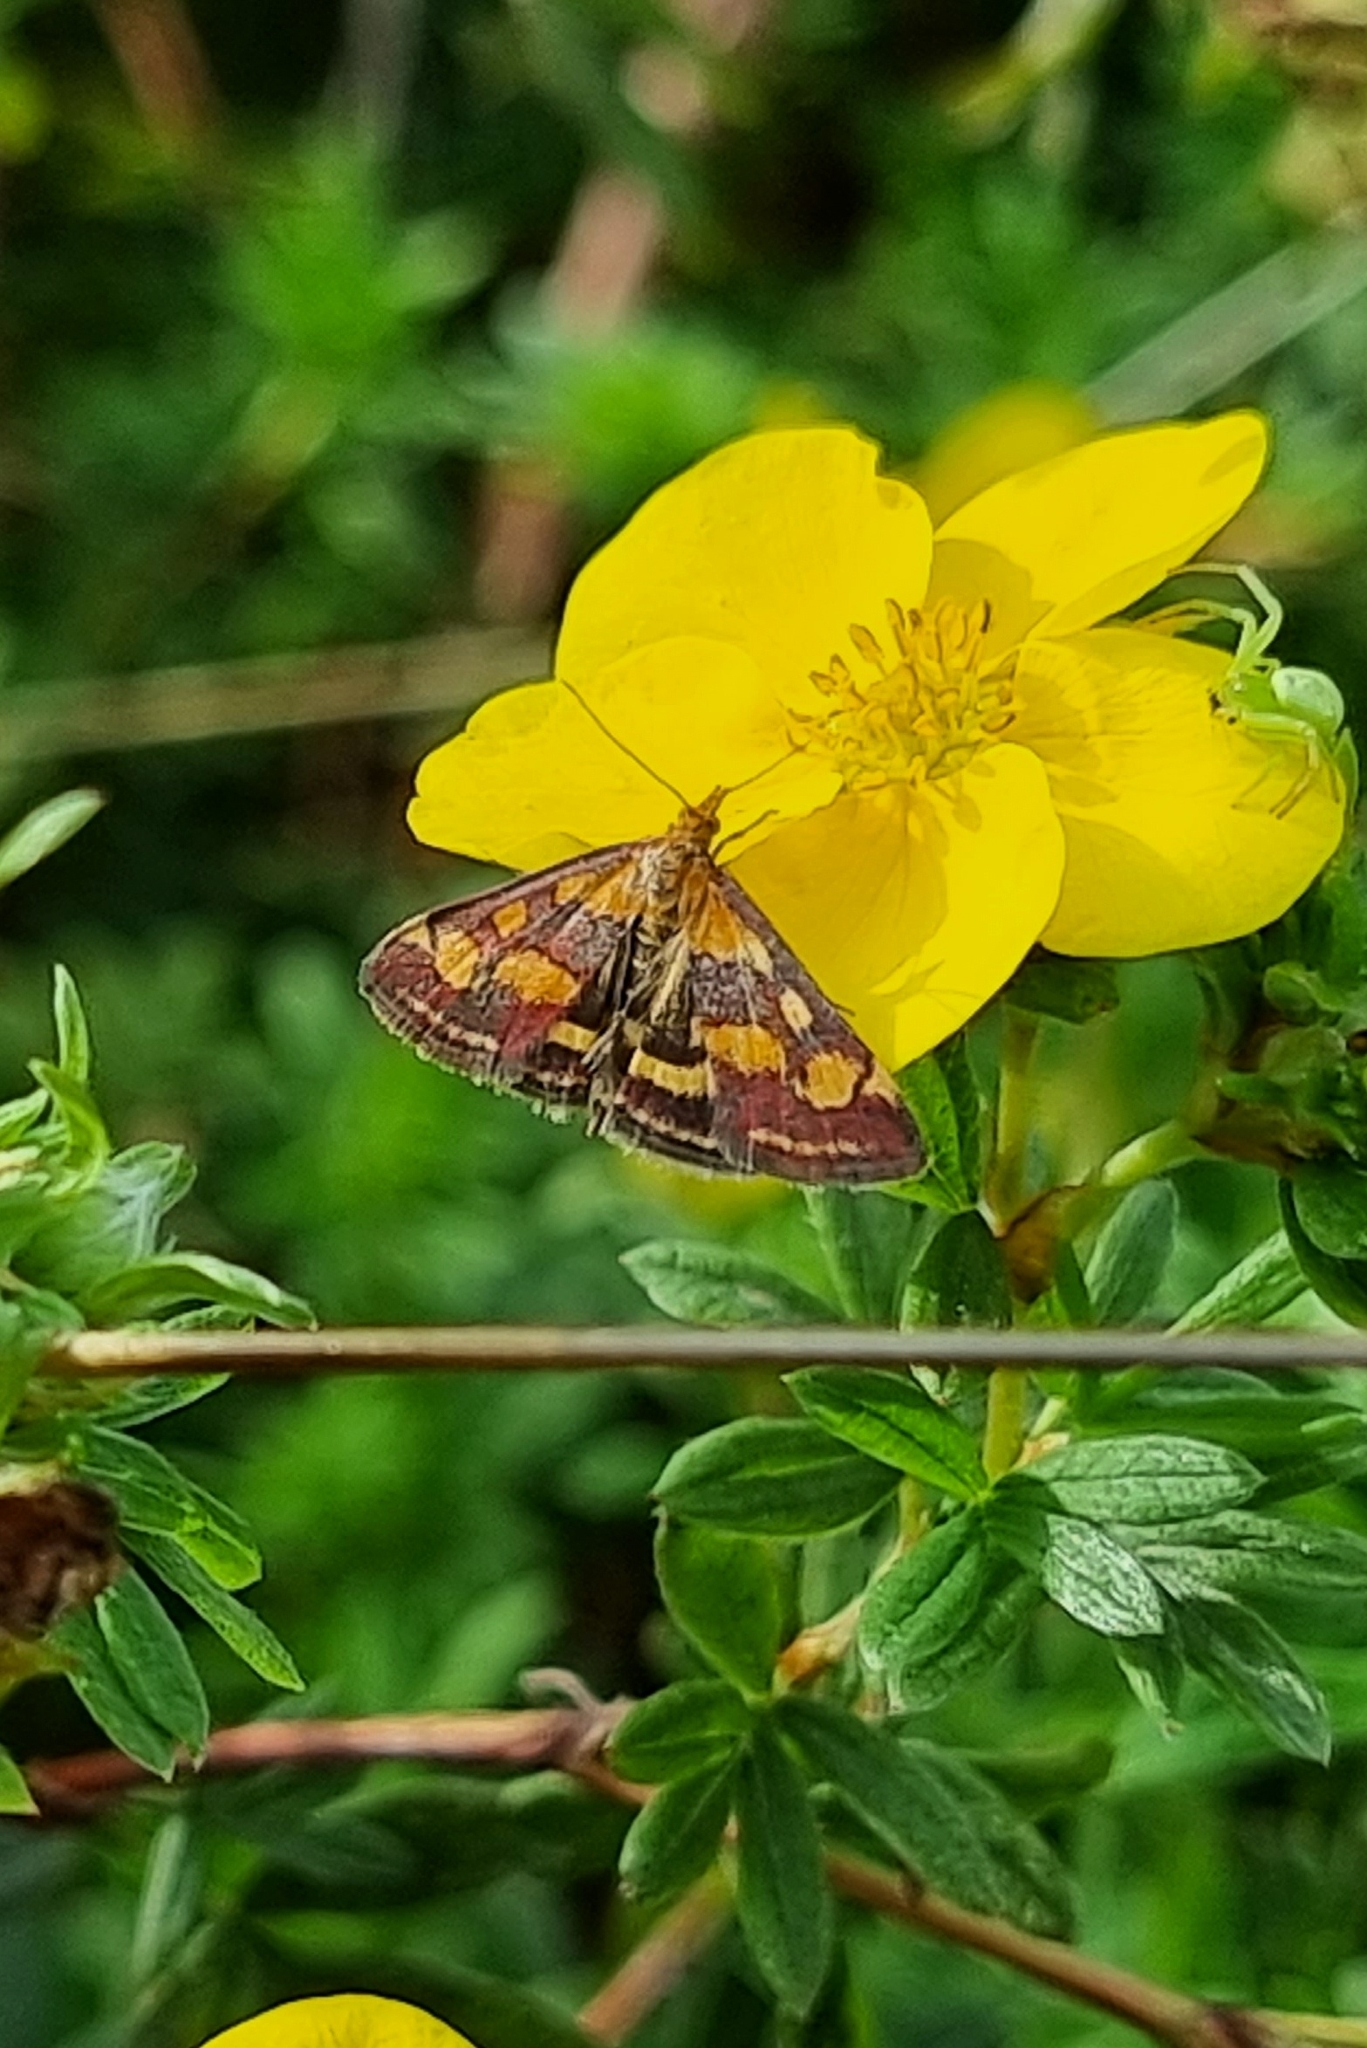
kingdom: Animalia
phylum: Arthropoda
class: Insecta
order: Lepidoptera
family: Crambidae
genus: Pyrausta
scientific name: Pyrausta purpuralis
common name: Common purple & gold
